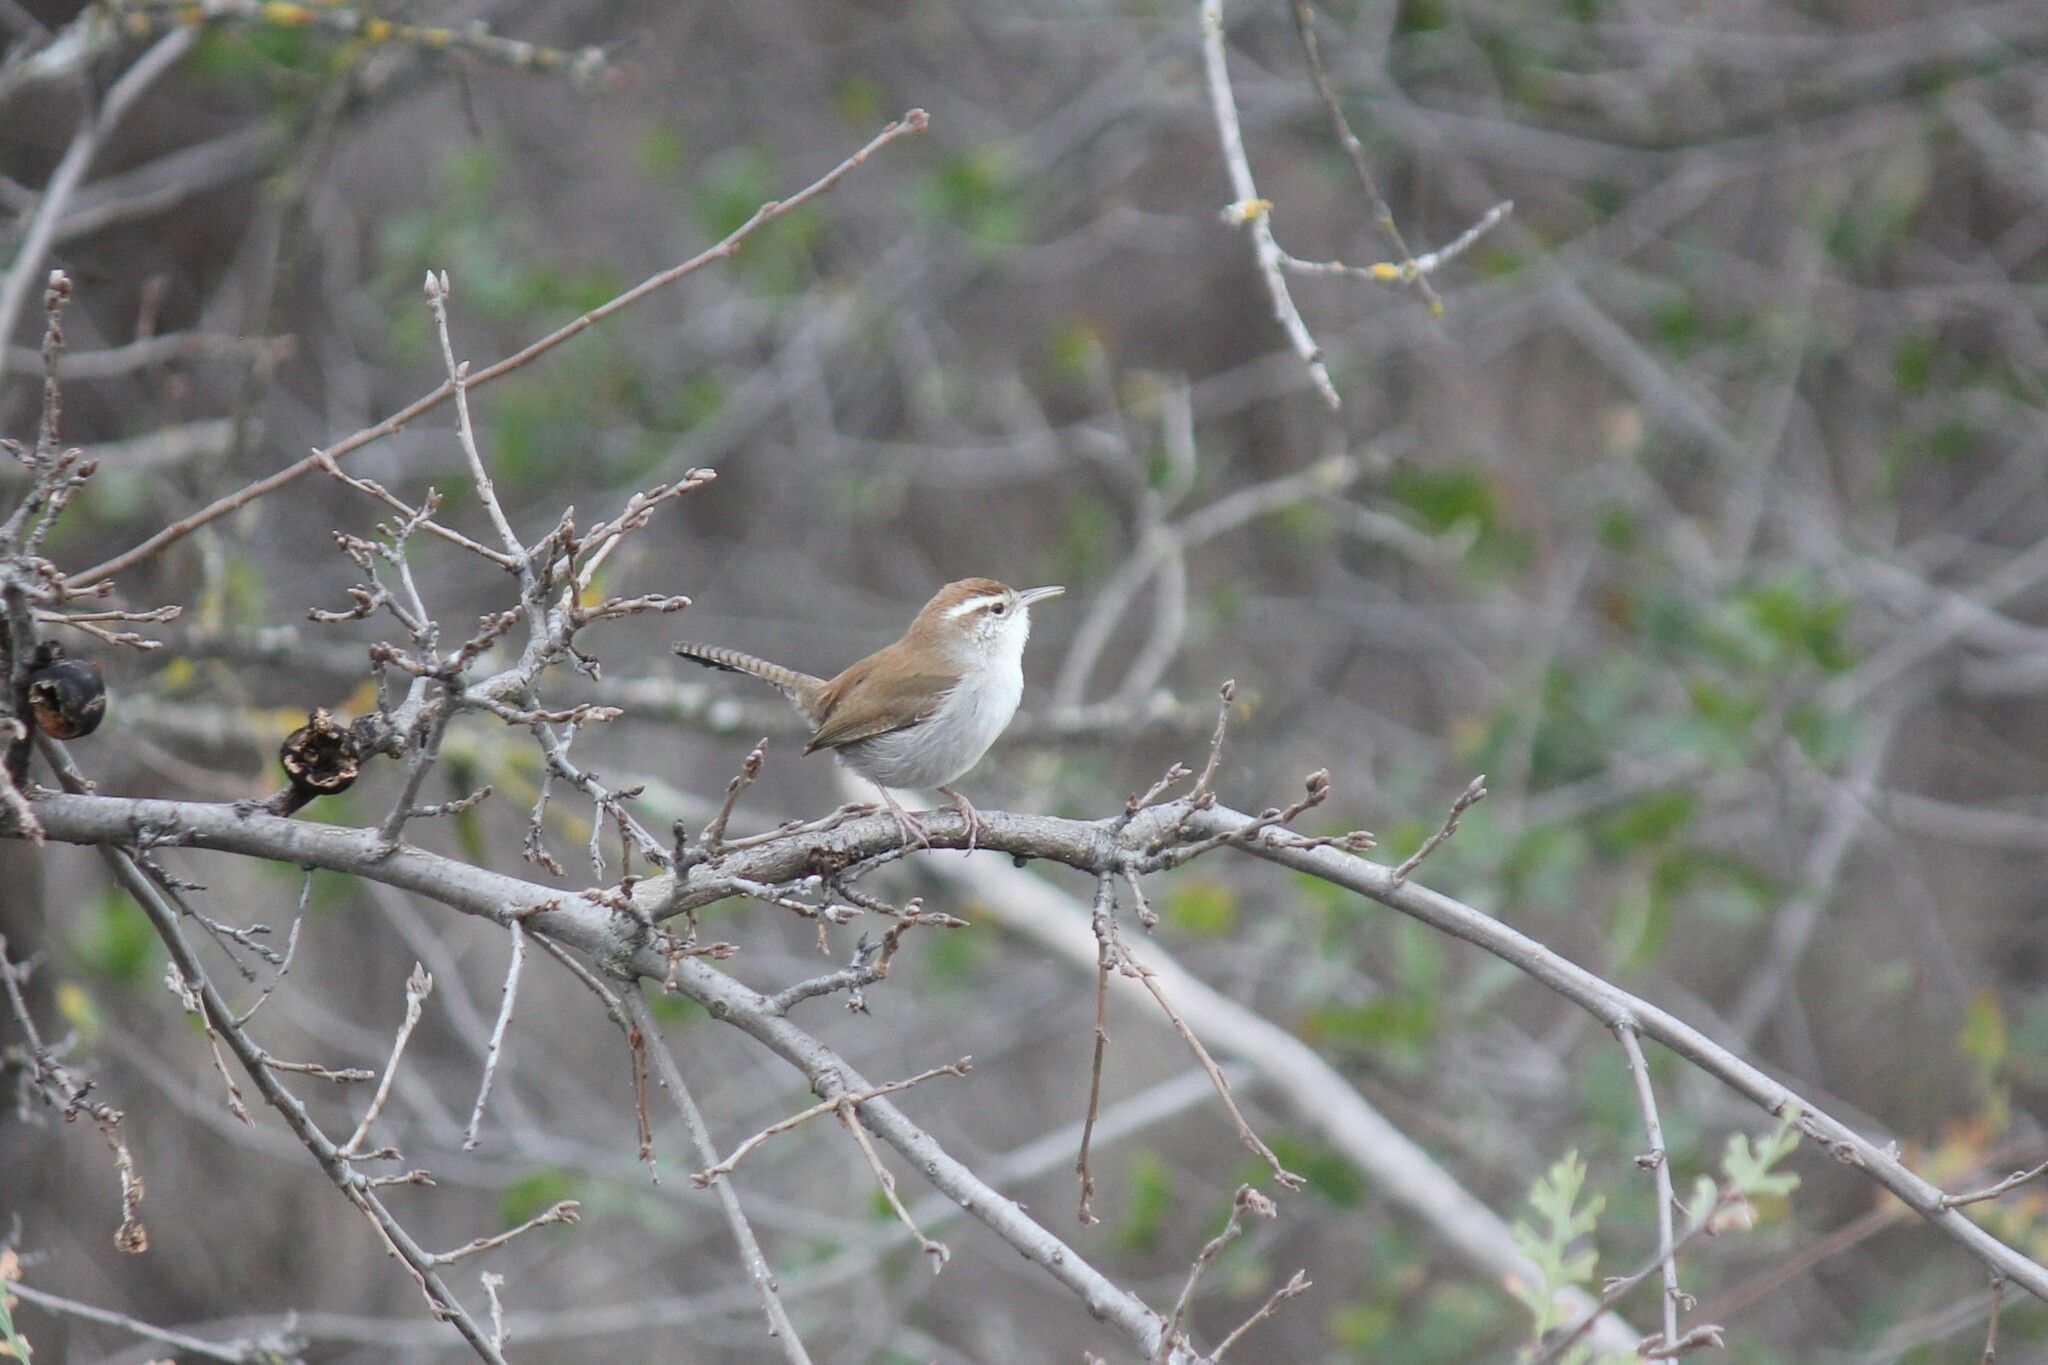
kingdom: Animalia
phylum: Chordata
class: Aves
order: Passeriformes
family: Troglodytidae
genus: Thryomanes
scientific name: Thryomanes bewickii
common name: Bewick's wren
